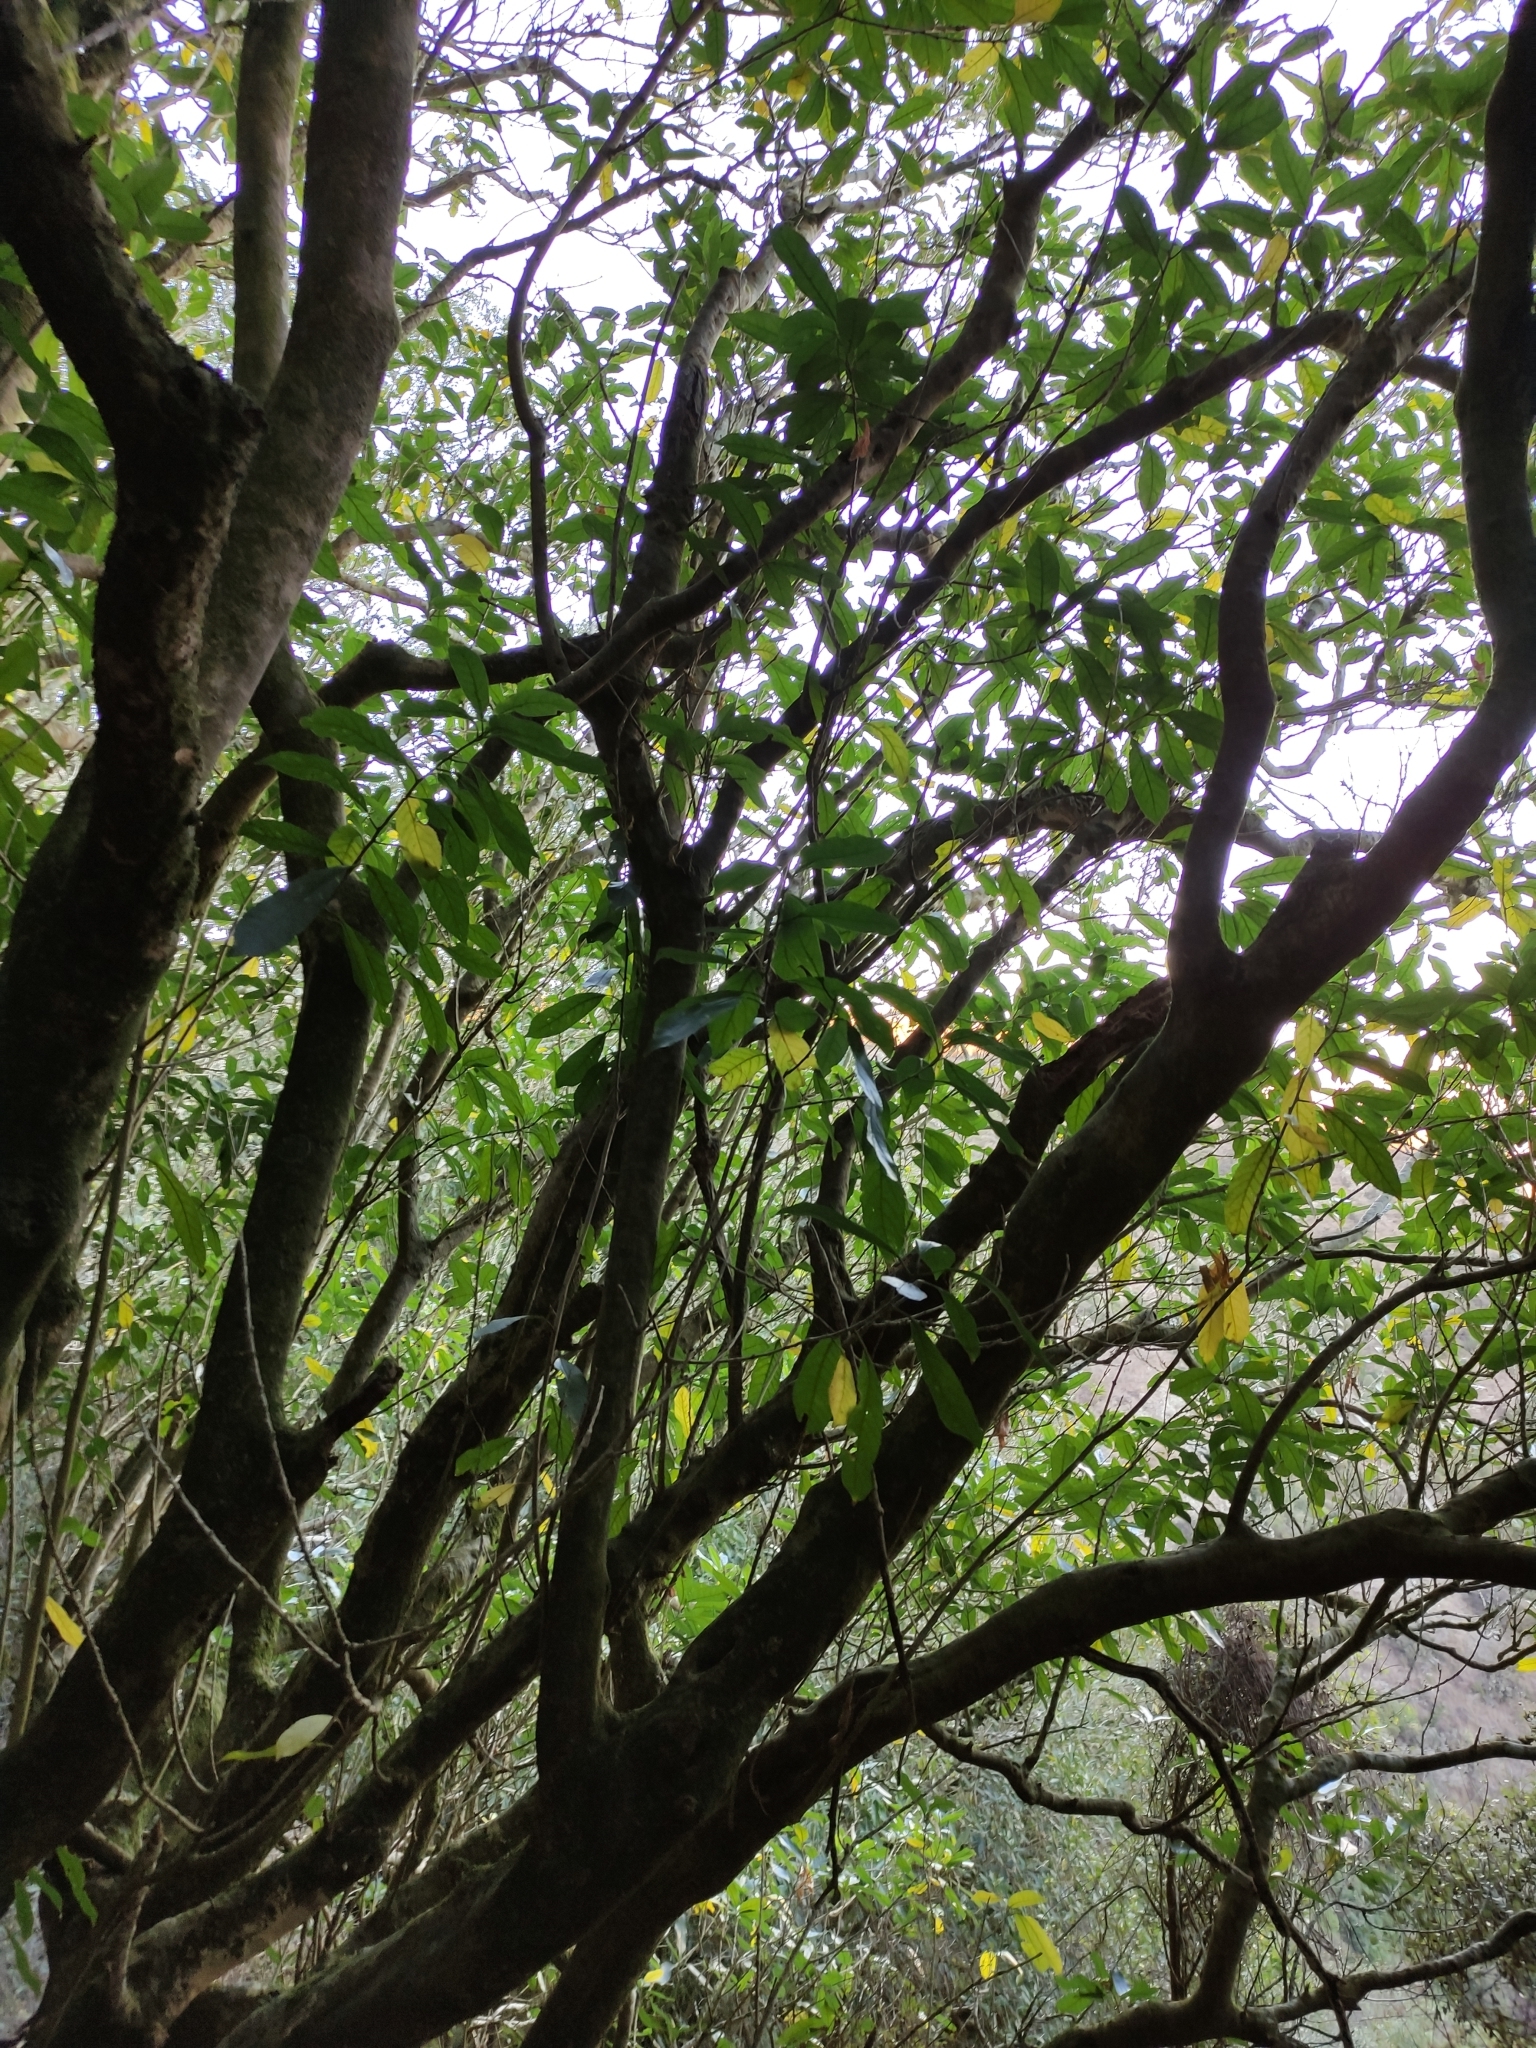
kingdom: Plantae
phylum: Tracheophyta
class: Magnoliopsida
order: Malpighiales
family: Violaceae
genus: Melicytus
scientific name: Melicytus ramiflorus
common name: Mahoe
